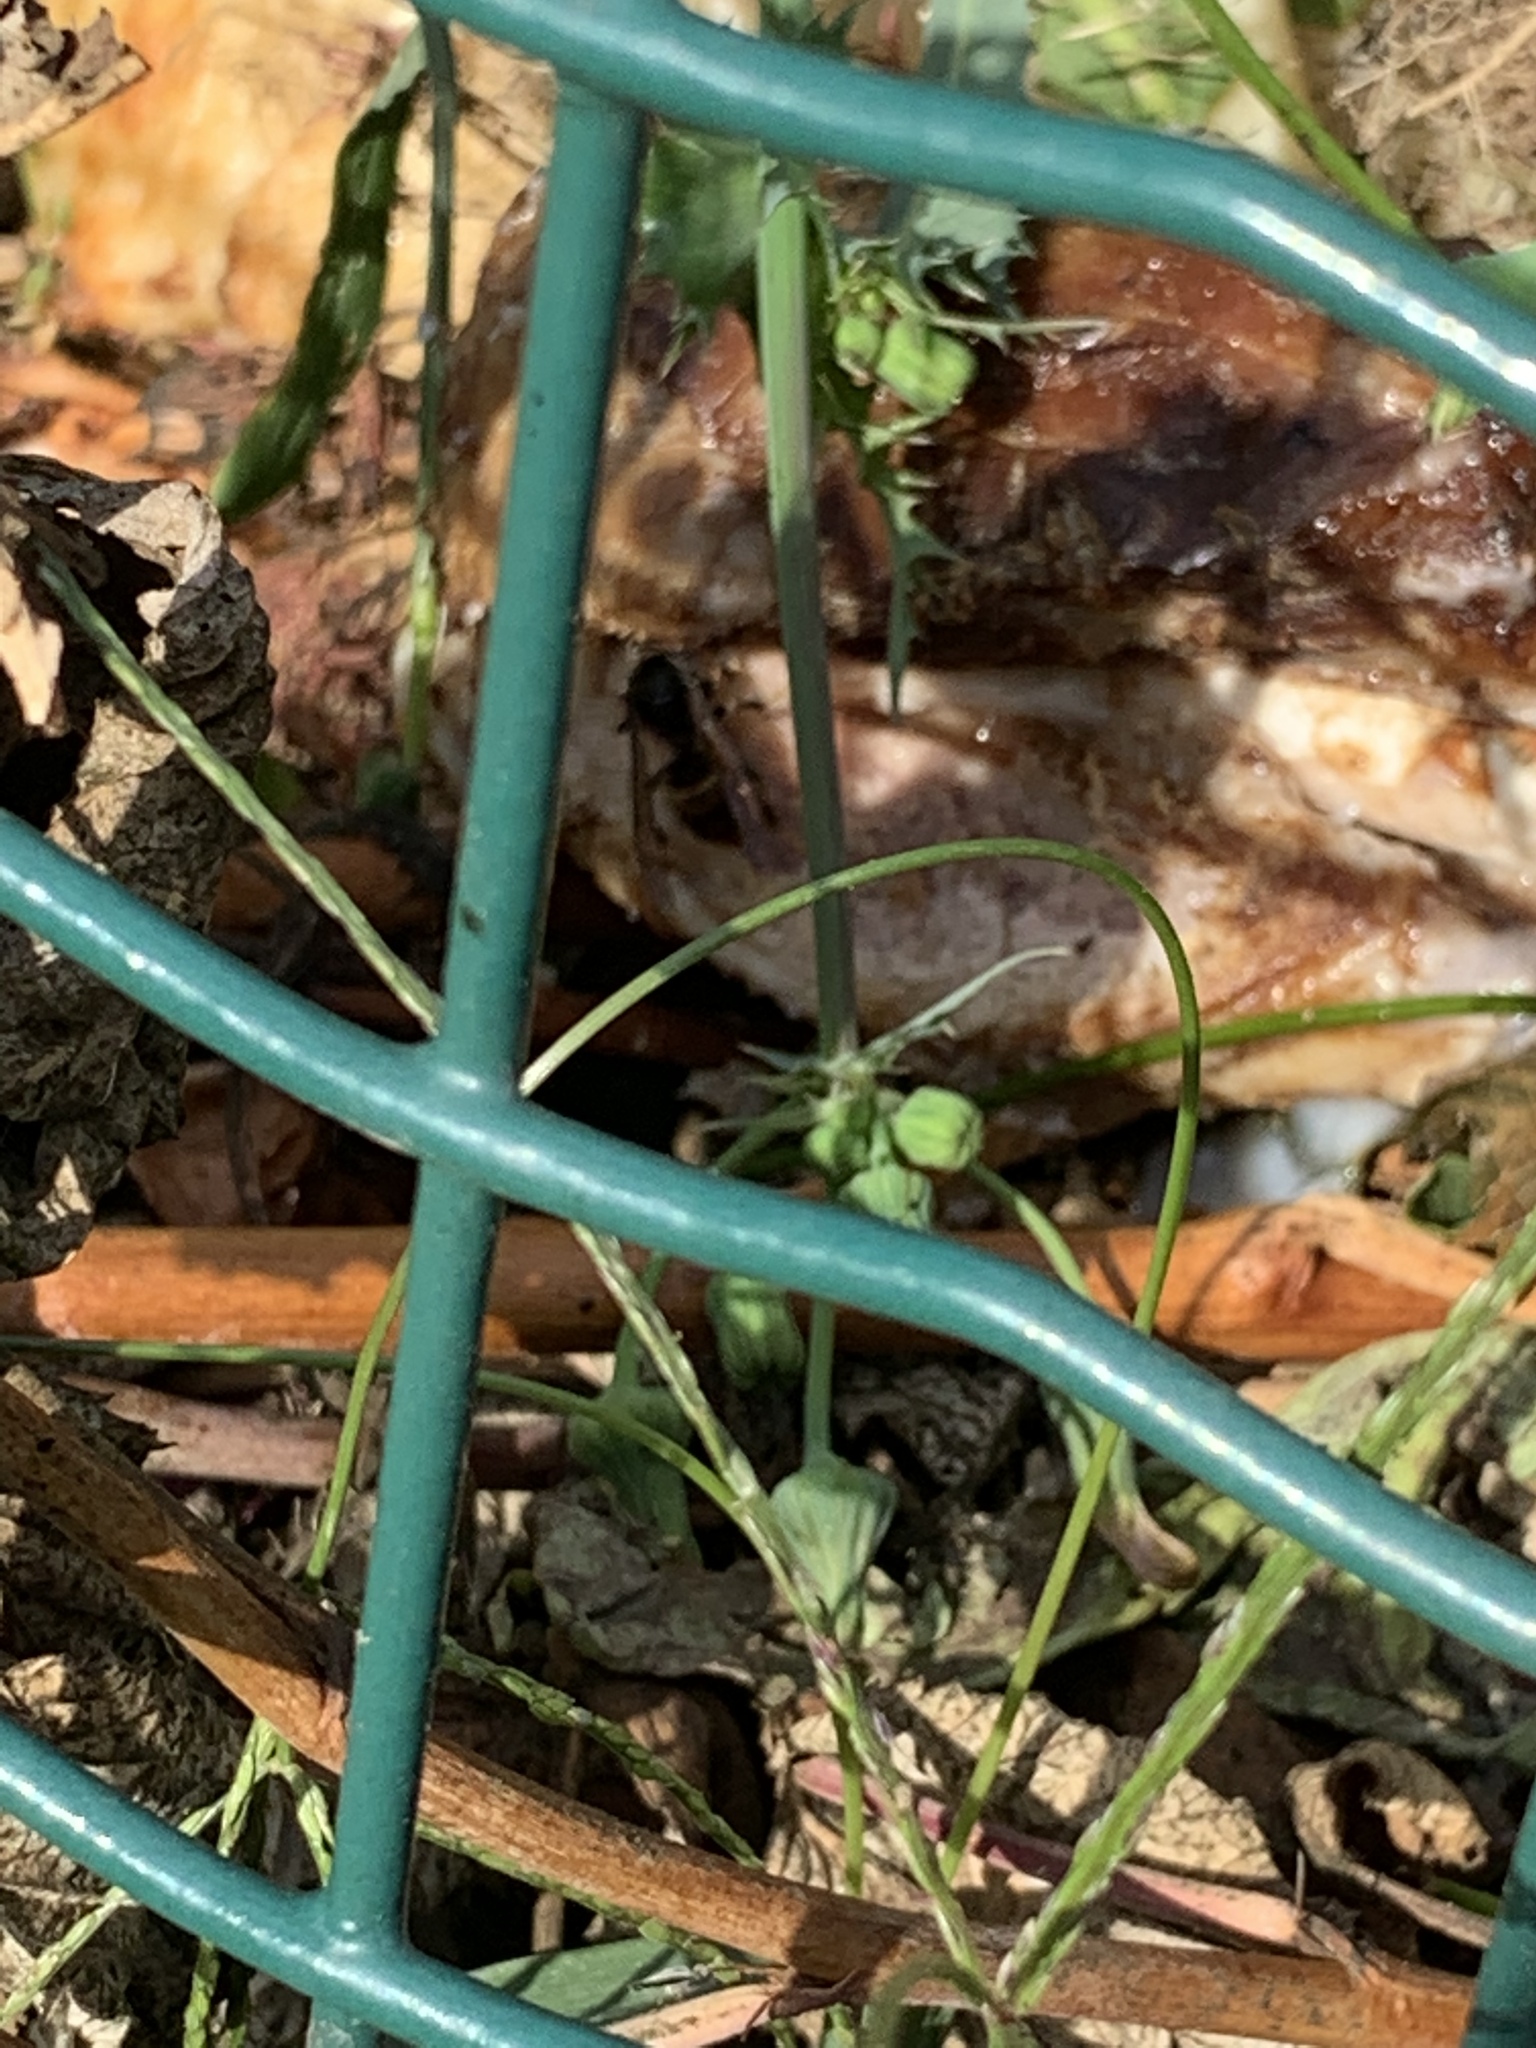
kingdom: Animalia
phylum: Arthropoda
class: Insecta
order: Hymenoptera
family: Vespidae
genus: Vespa
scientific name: Vespa velutina
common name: Asian hornet
